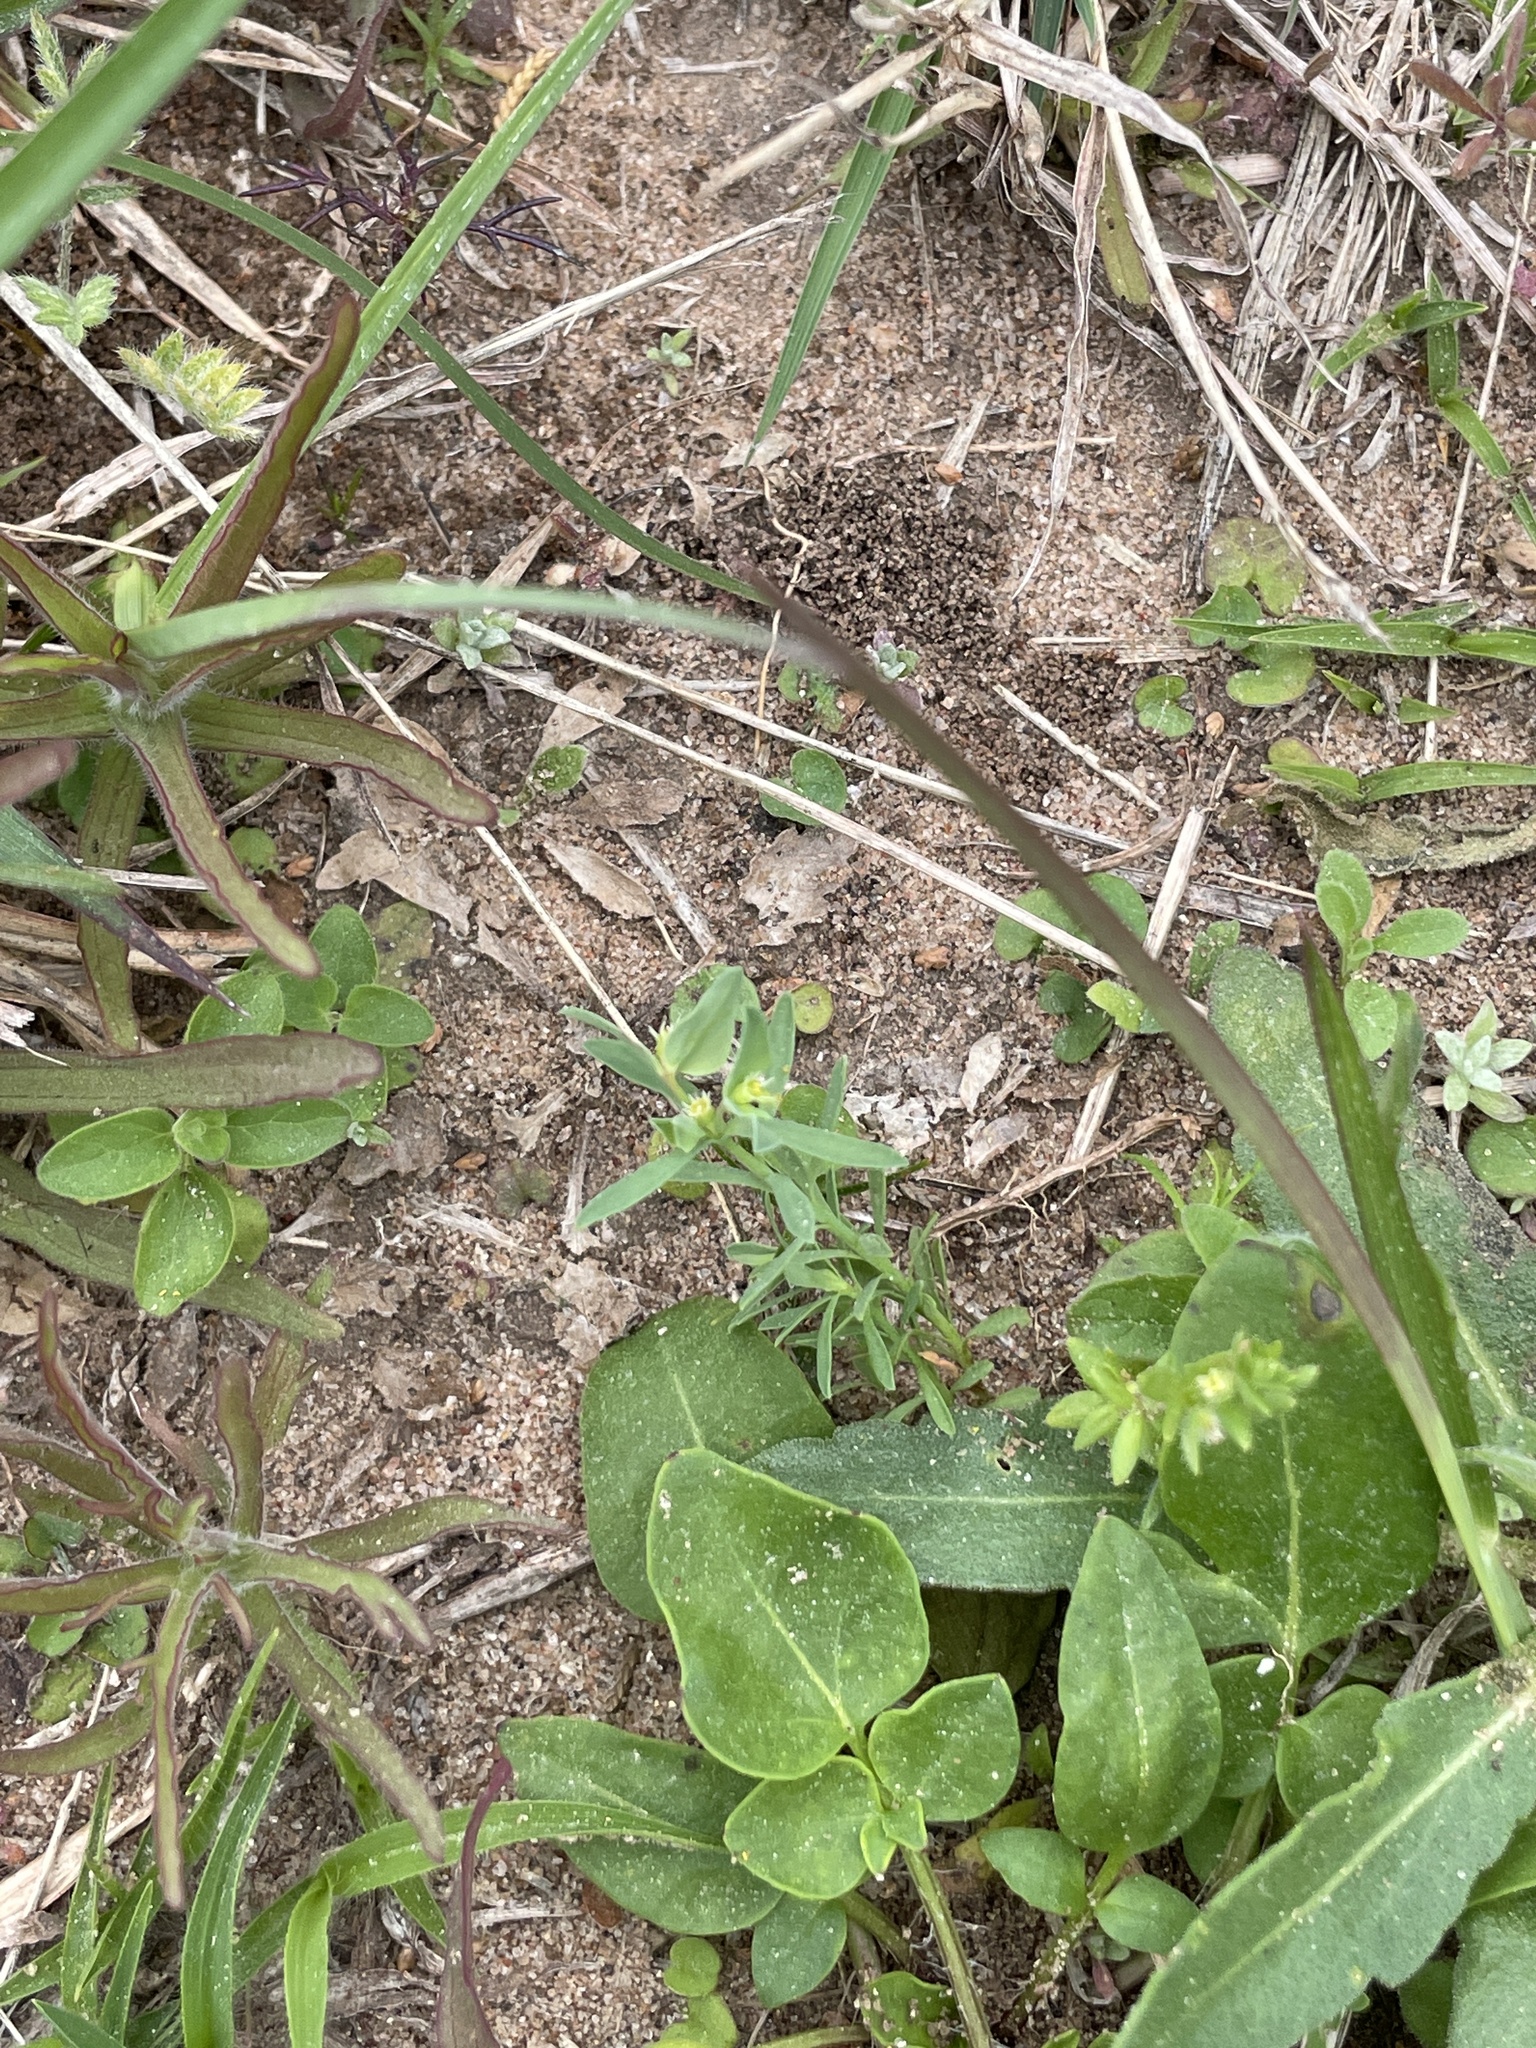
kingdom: Plantae
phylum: Tracheophyta
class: Magnoliopsida
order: Malpighiales
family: Euphorbiaceae
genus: Euphorbia
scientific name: Euphorbia peplidion
